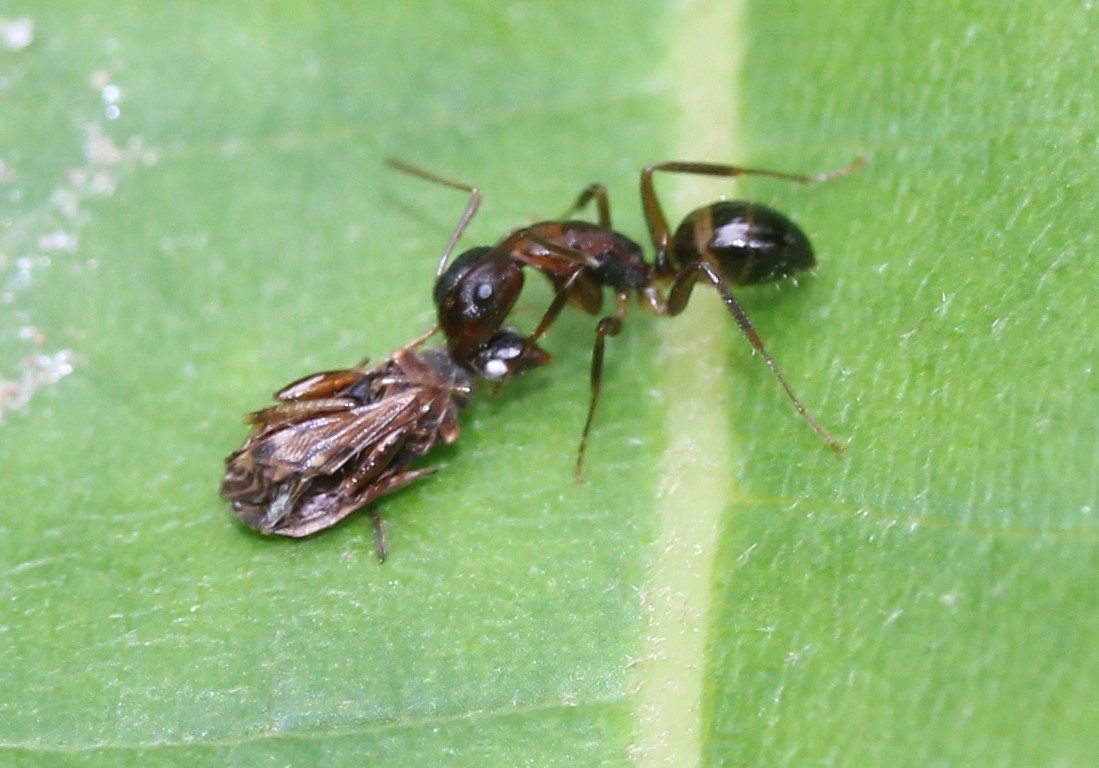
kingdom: Animalia
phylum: Arthropoda
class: Insecta
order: Hymenoptera
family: Formicidae
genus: Camponotus
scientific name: Camponotus subbarbatus
